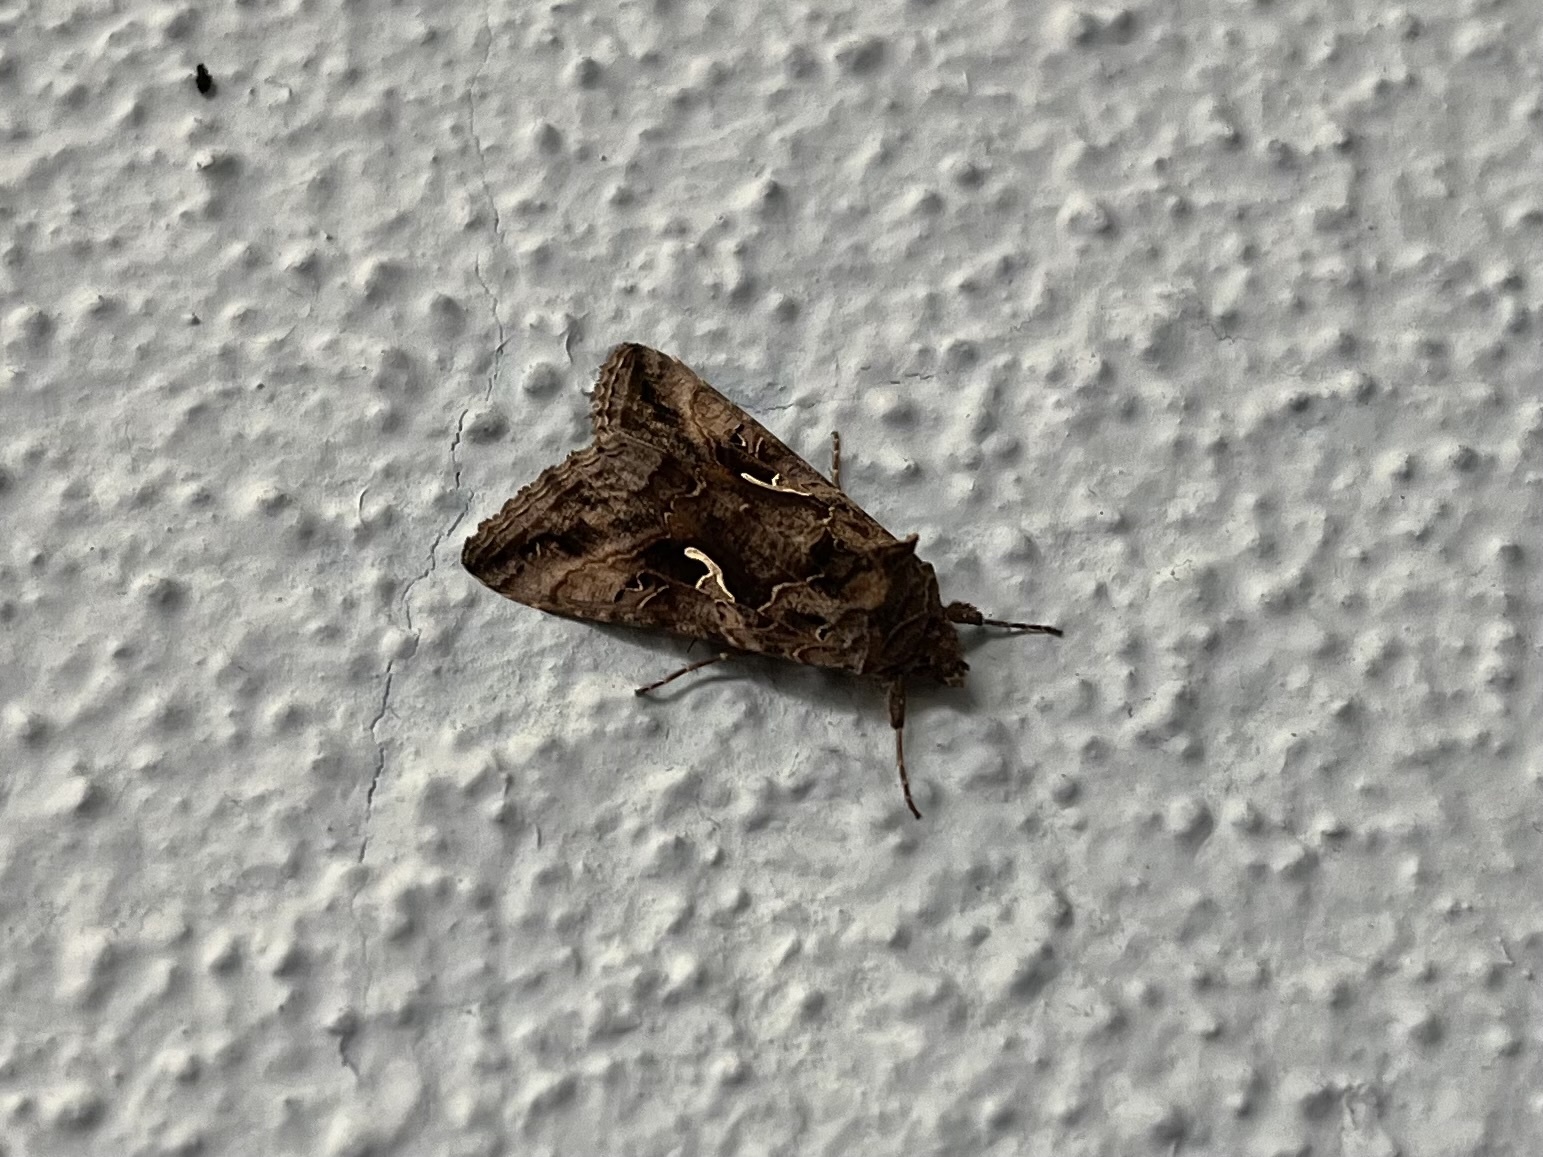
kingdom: Animalia
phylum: Arthropoda
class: Insecta
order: Lepidoptera
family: Noctuidae
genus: Autographa
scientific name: Autographa gamma
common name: Silver y
